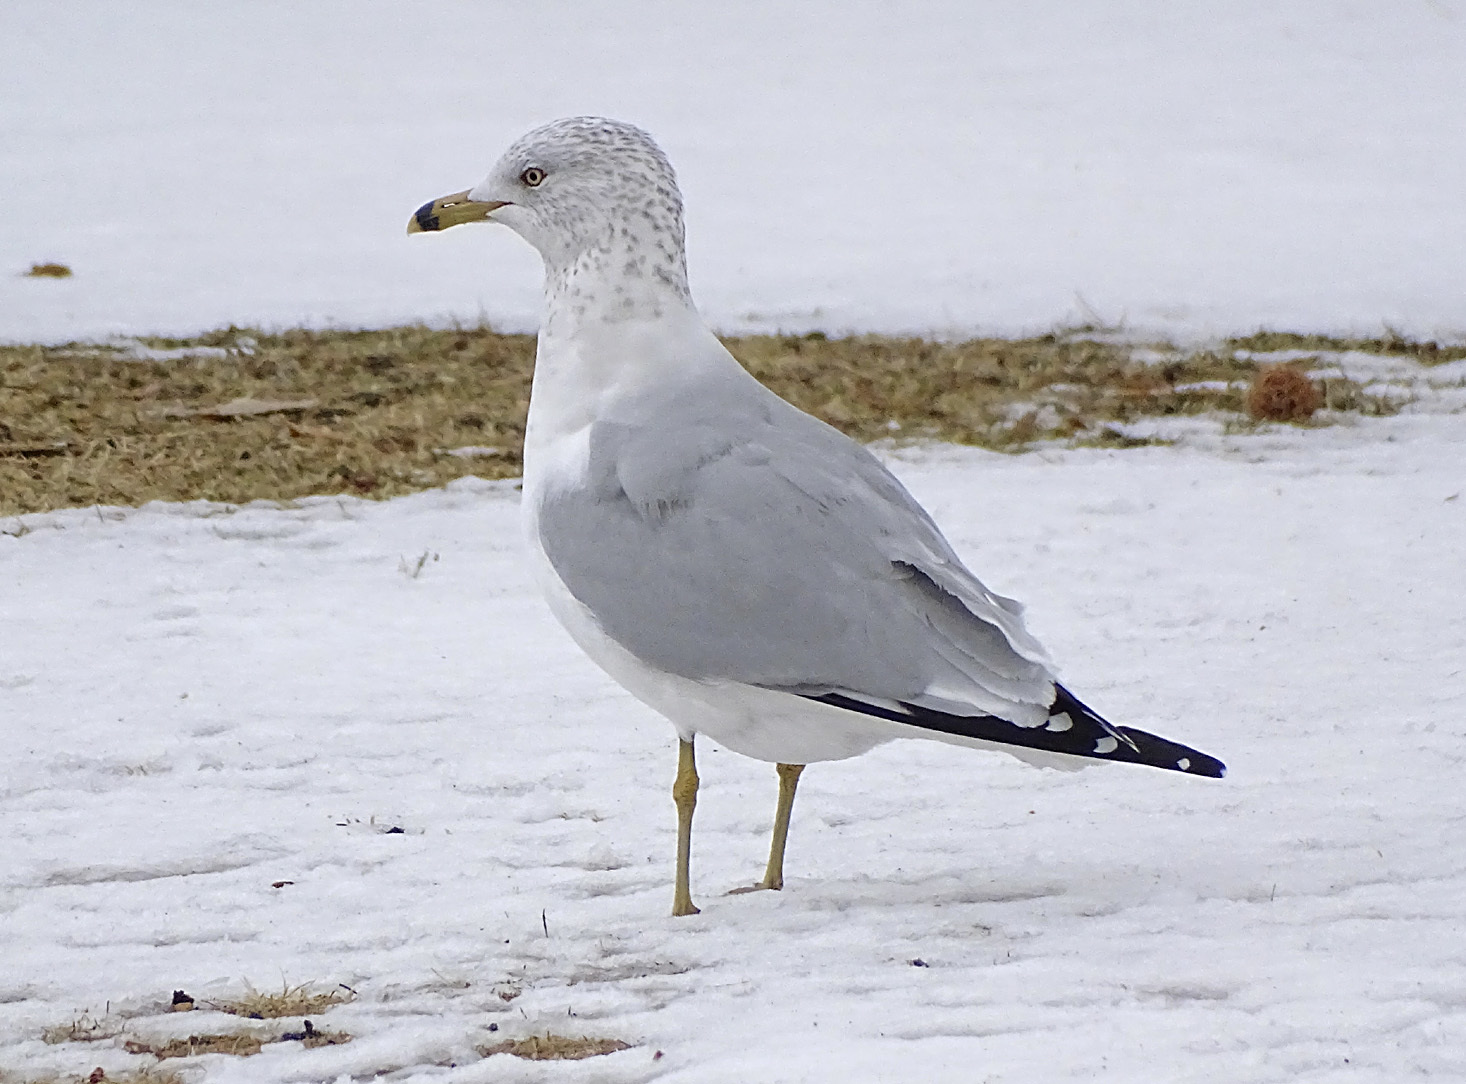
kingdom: Animalia
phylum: Chordata
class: Aves
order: Charadriiformes
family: Laridae
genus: Larus
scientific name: Larus delawarensis
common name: Ring-billed gull
